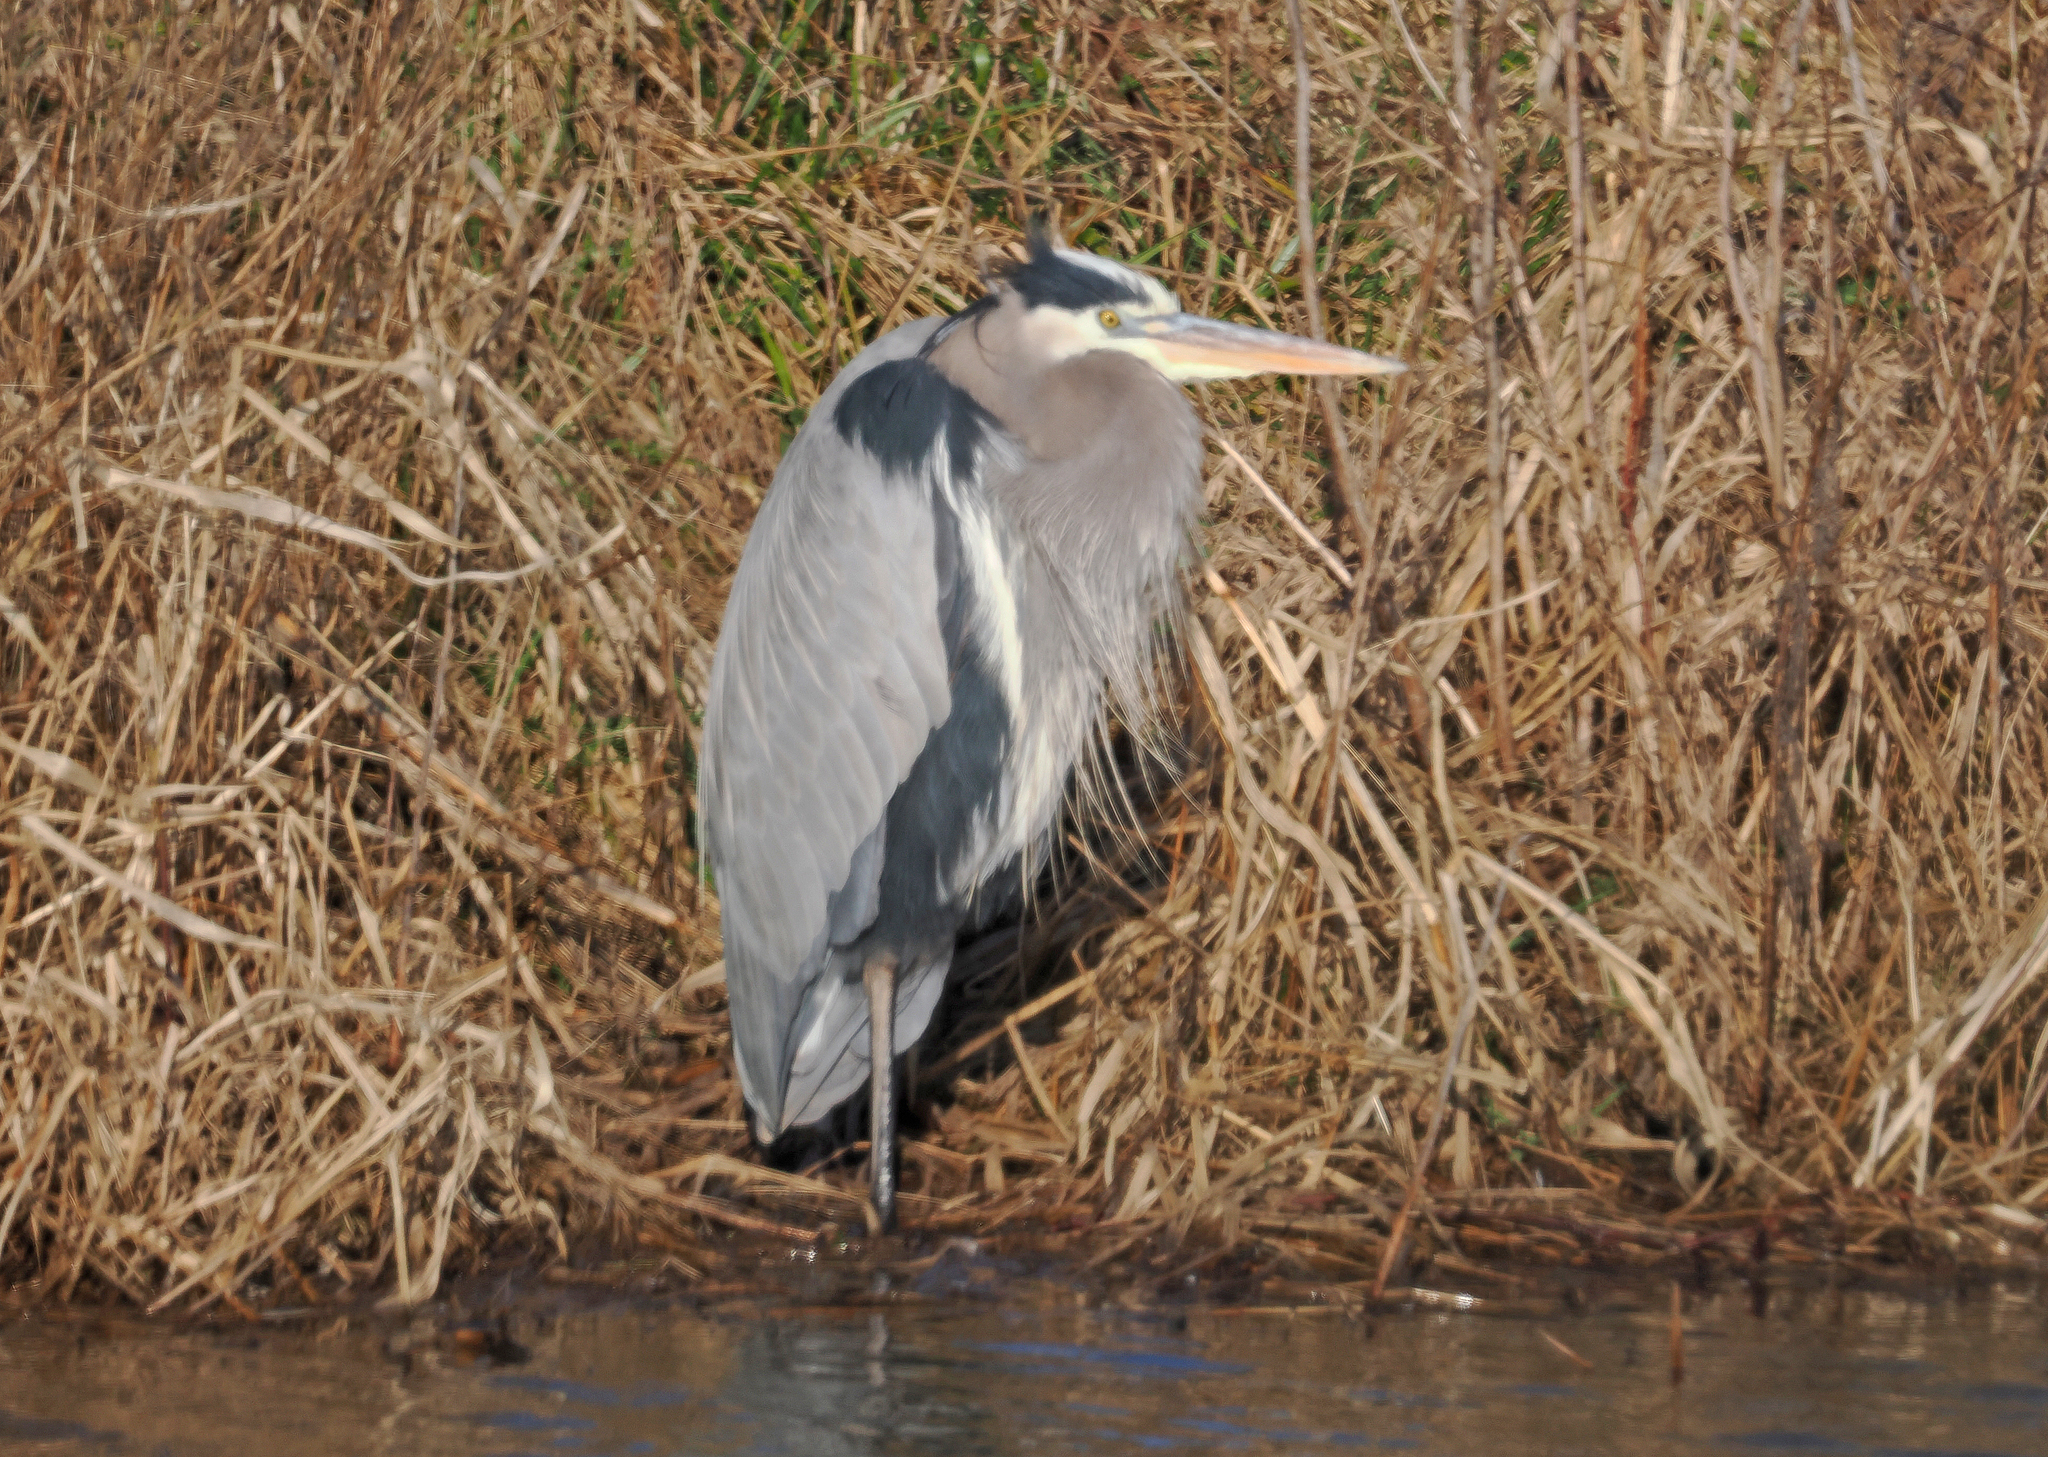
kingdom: Animalia
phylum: Chordata
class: Aves
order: Pelecaniformes
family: Ardeidae
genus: Ardea
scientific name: Ardea herodias
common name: Great blue heron
